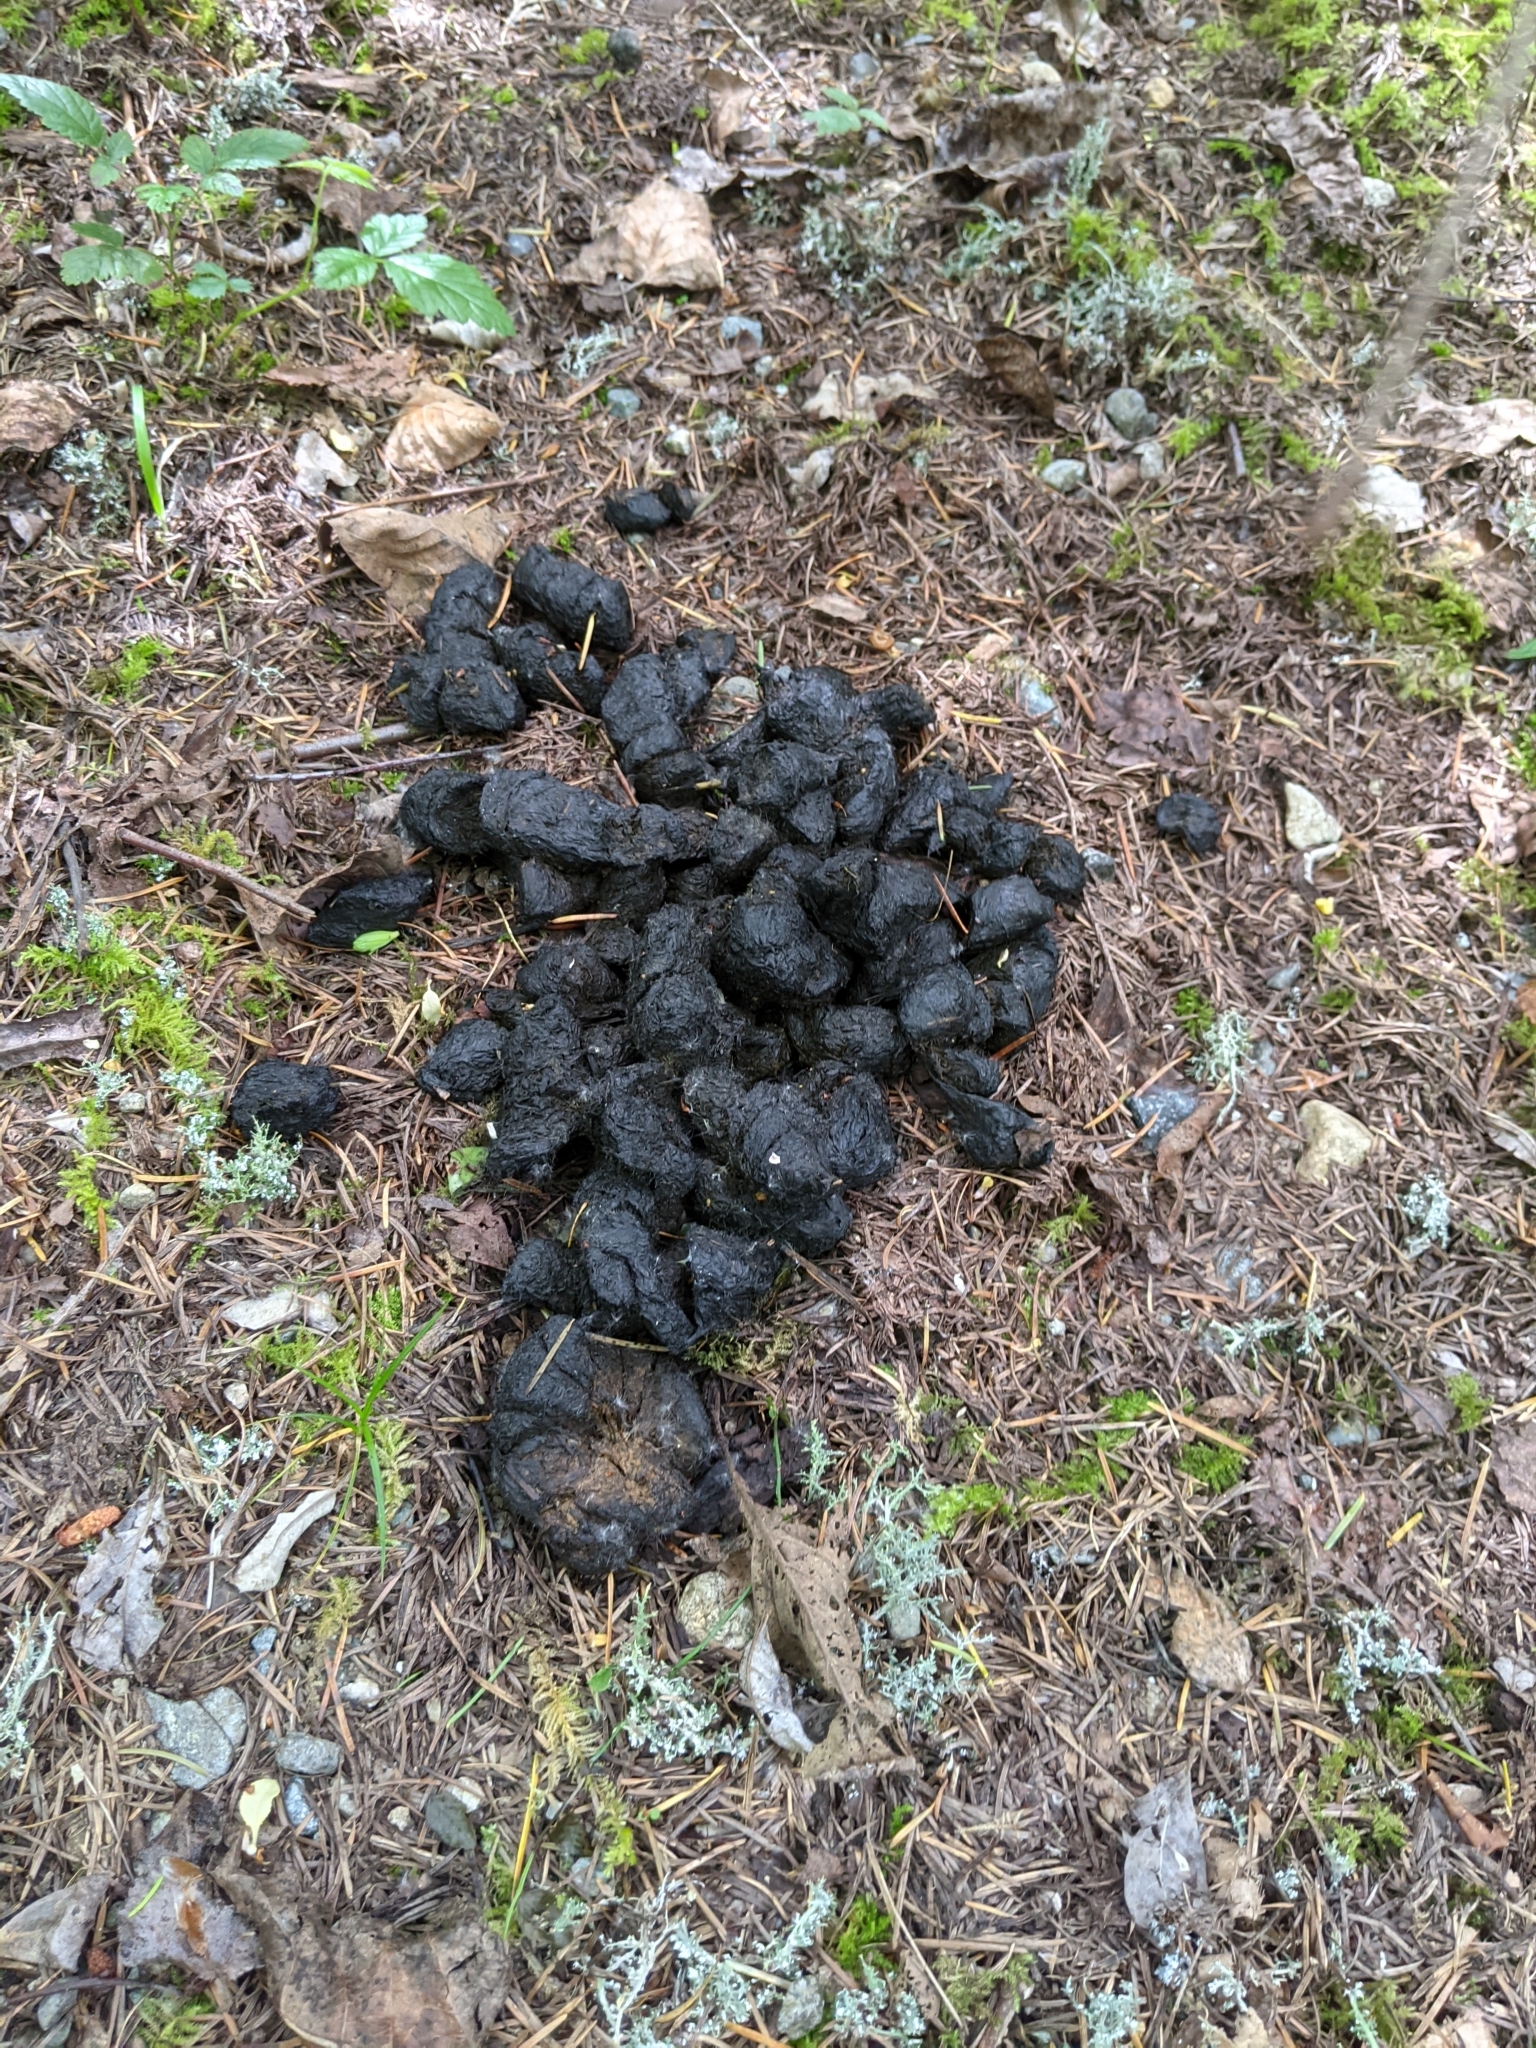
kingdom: Animalia
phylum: Chordata
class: Mammalia
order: Carnivora
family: Ursidae
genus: Ursus
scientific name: Ursus americanus
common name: American black bear
